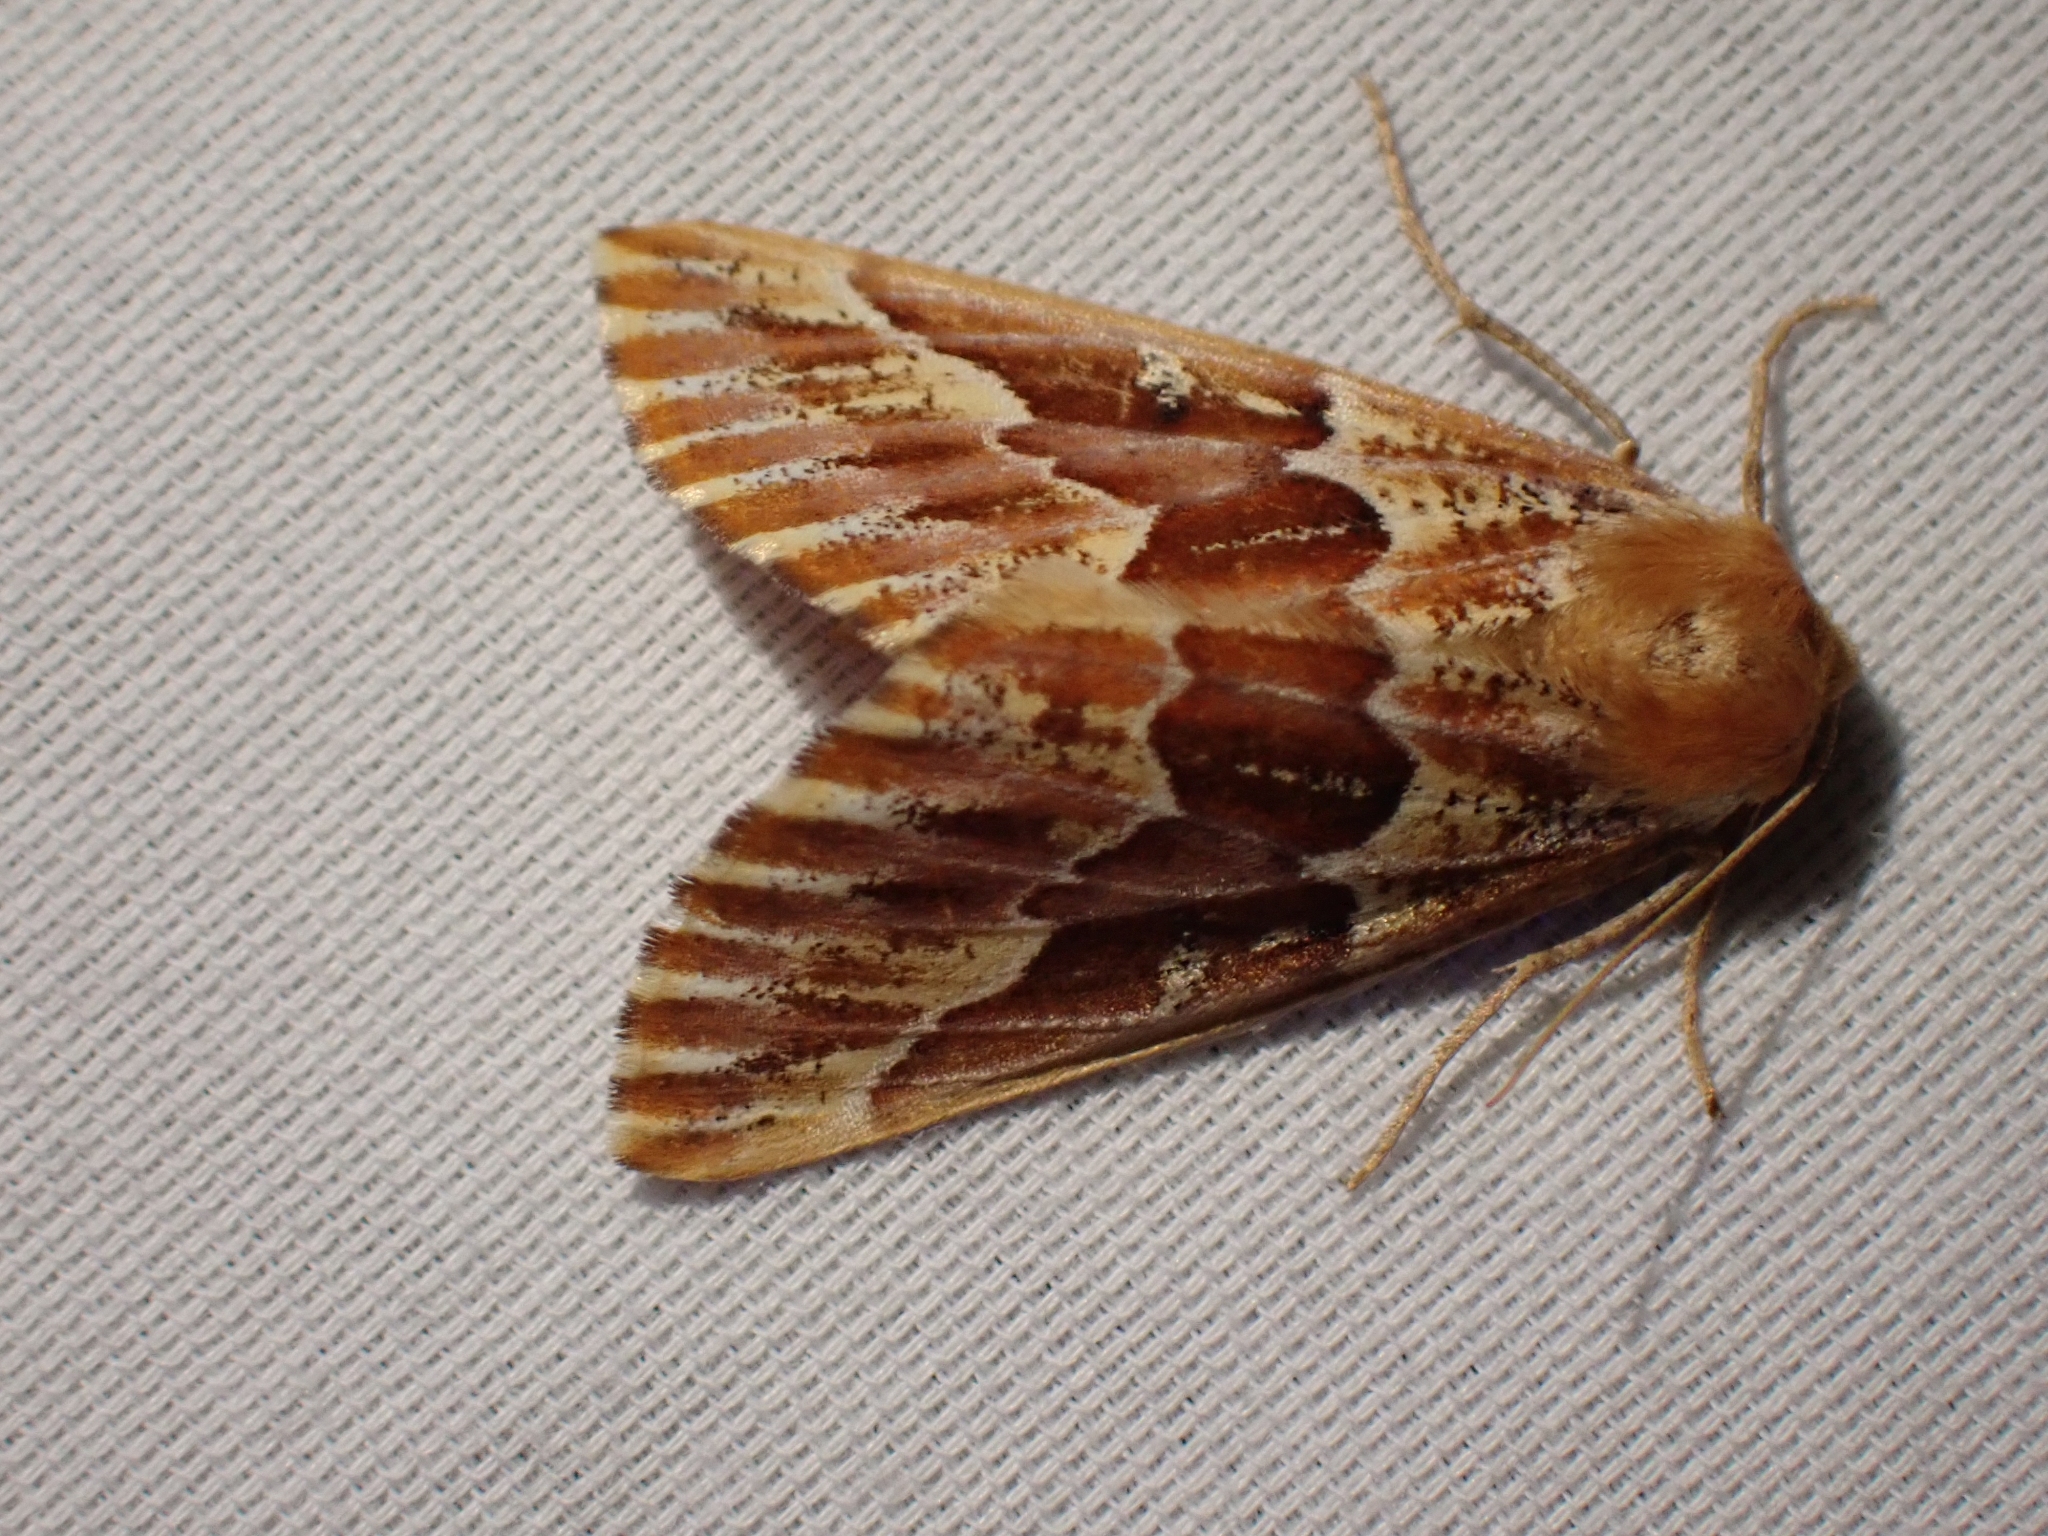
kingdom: Animalia
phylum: Arthropoda
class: Insecta
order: Lepidoptera
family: Geometridae
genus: Caripeta
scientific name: Caripeta aequaliaria
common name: Red girdle moth
